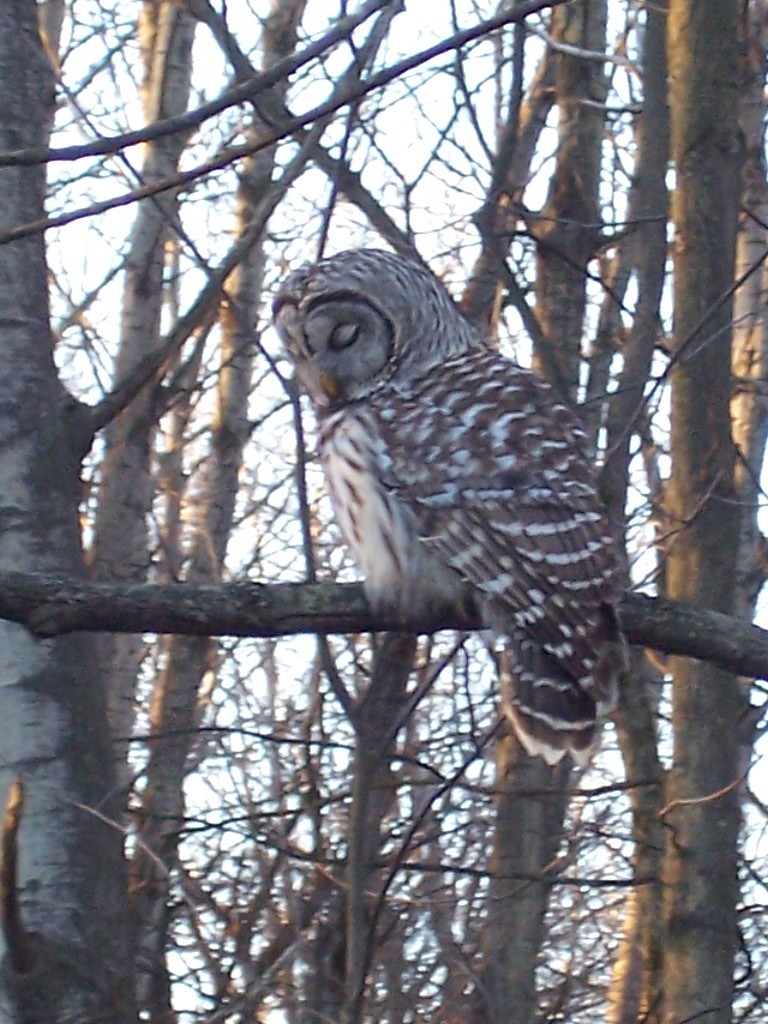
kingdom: Animalia
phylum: Chordata
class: Aves
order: Strigiformes
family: Strigidae
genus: Strix
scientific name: Strix varia
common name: Barred owl
